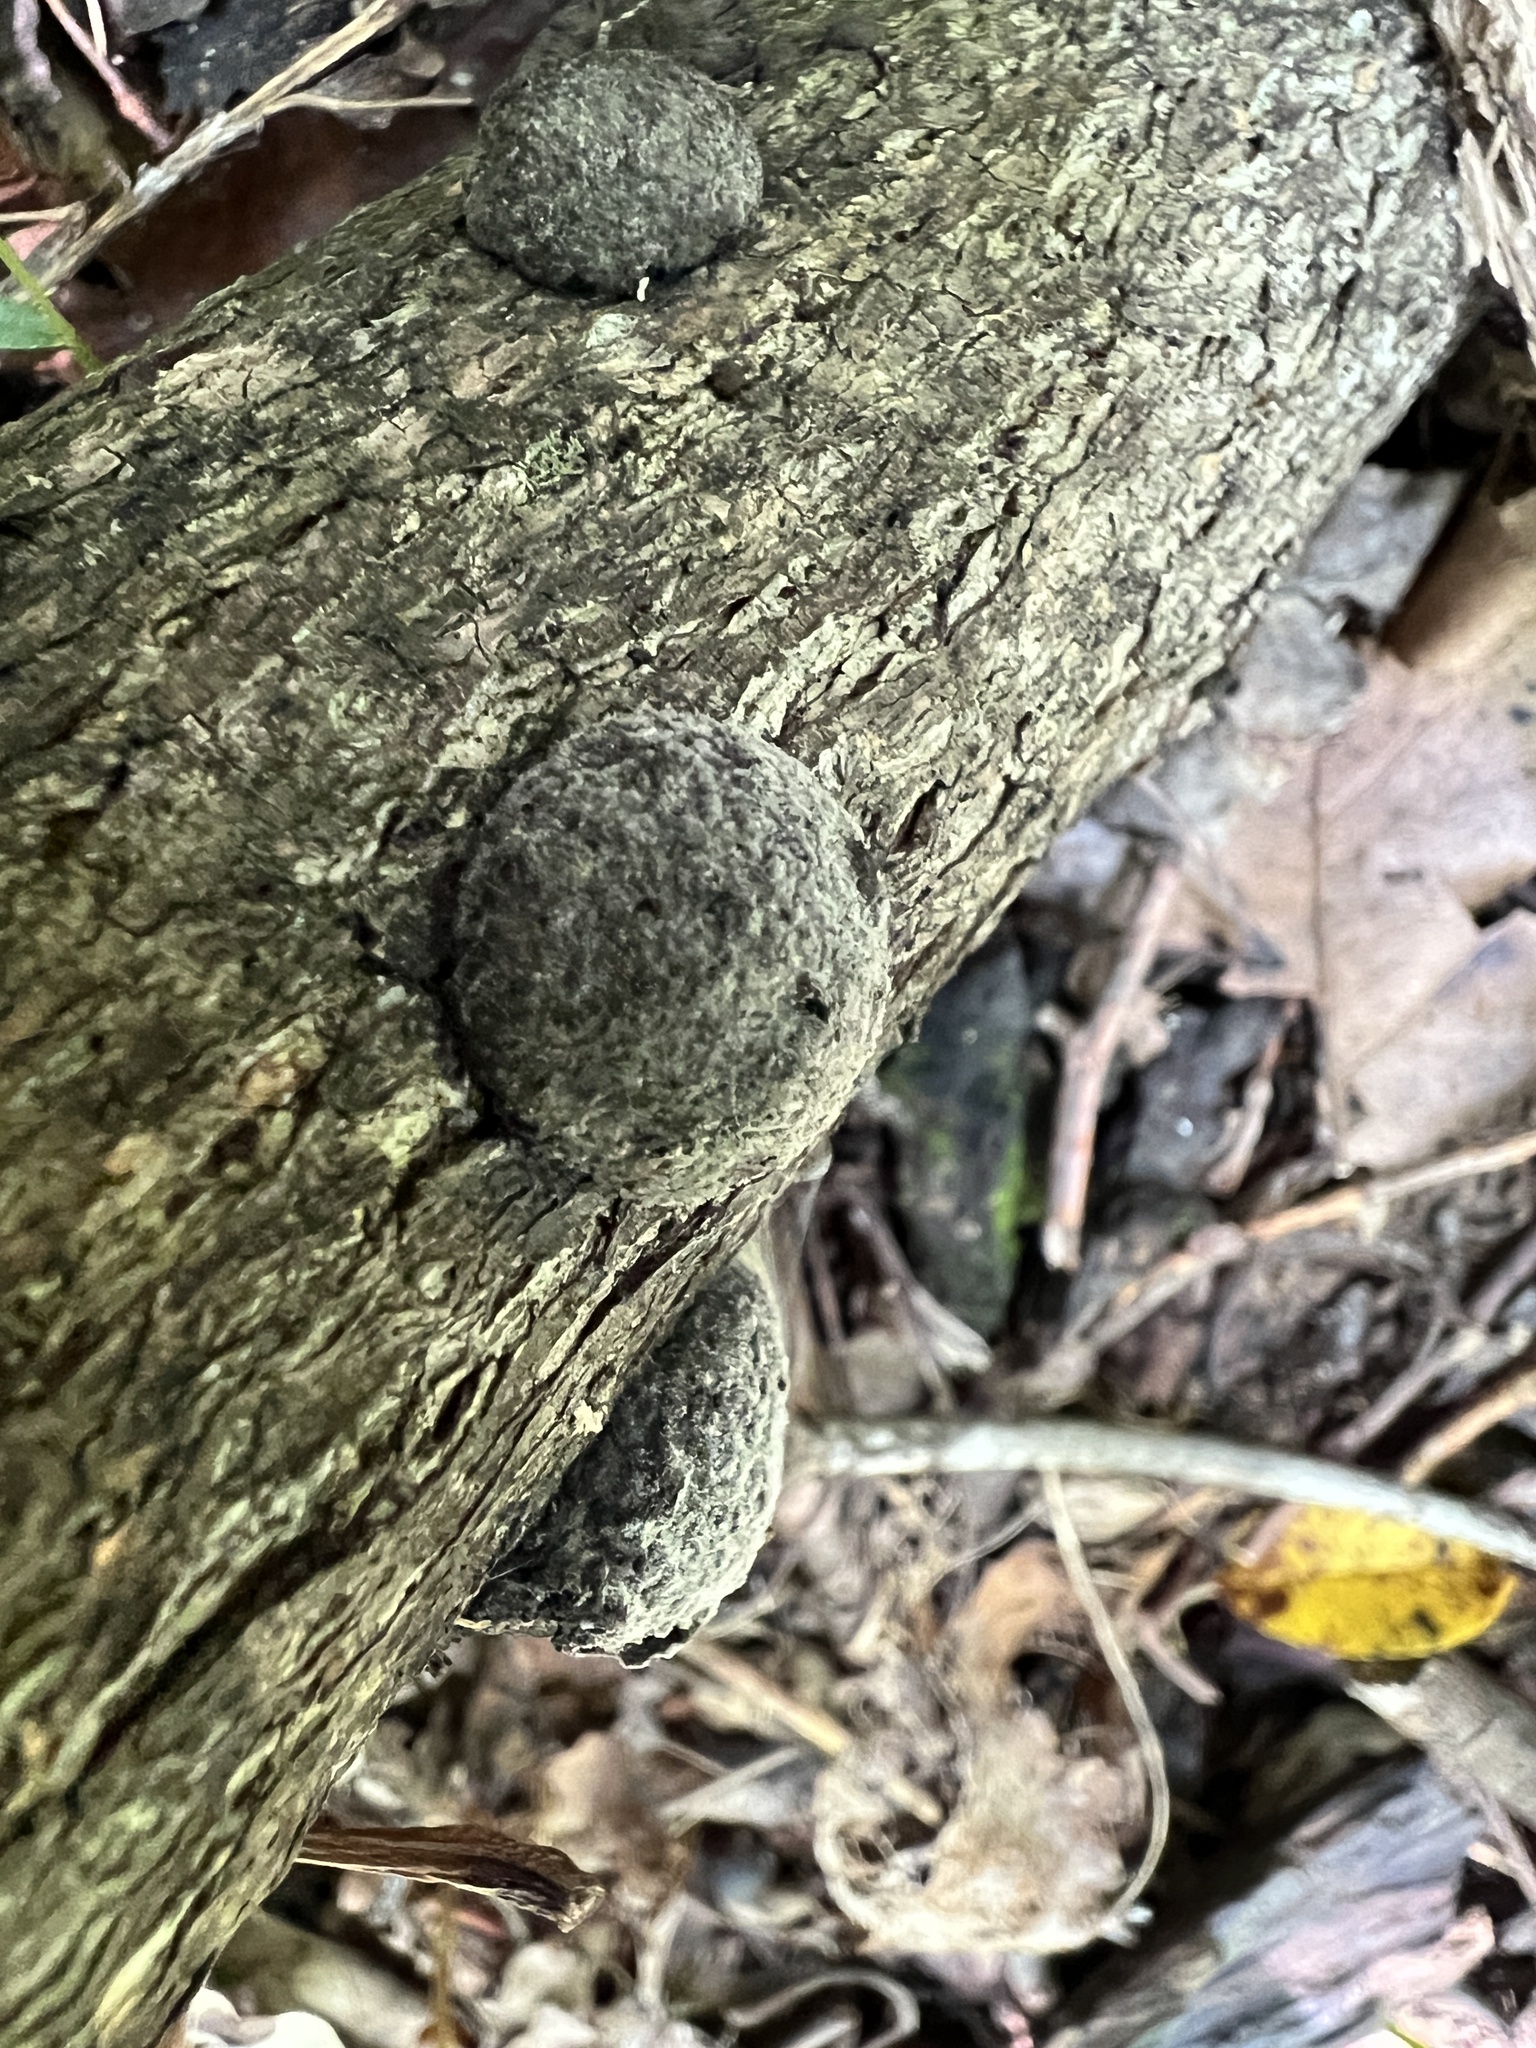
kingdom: Fungi
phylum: Ascomycota
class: Sordariomycetes
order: Xylariales
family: Hypoxylaceae
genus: Annulohypoxylon
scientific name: Annulohypoxylon thouarsianum
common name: Cramp balls
